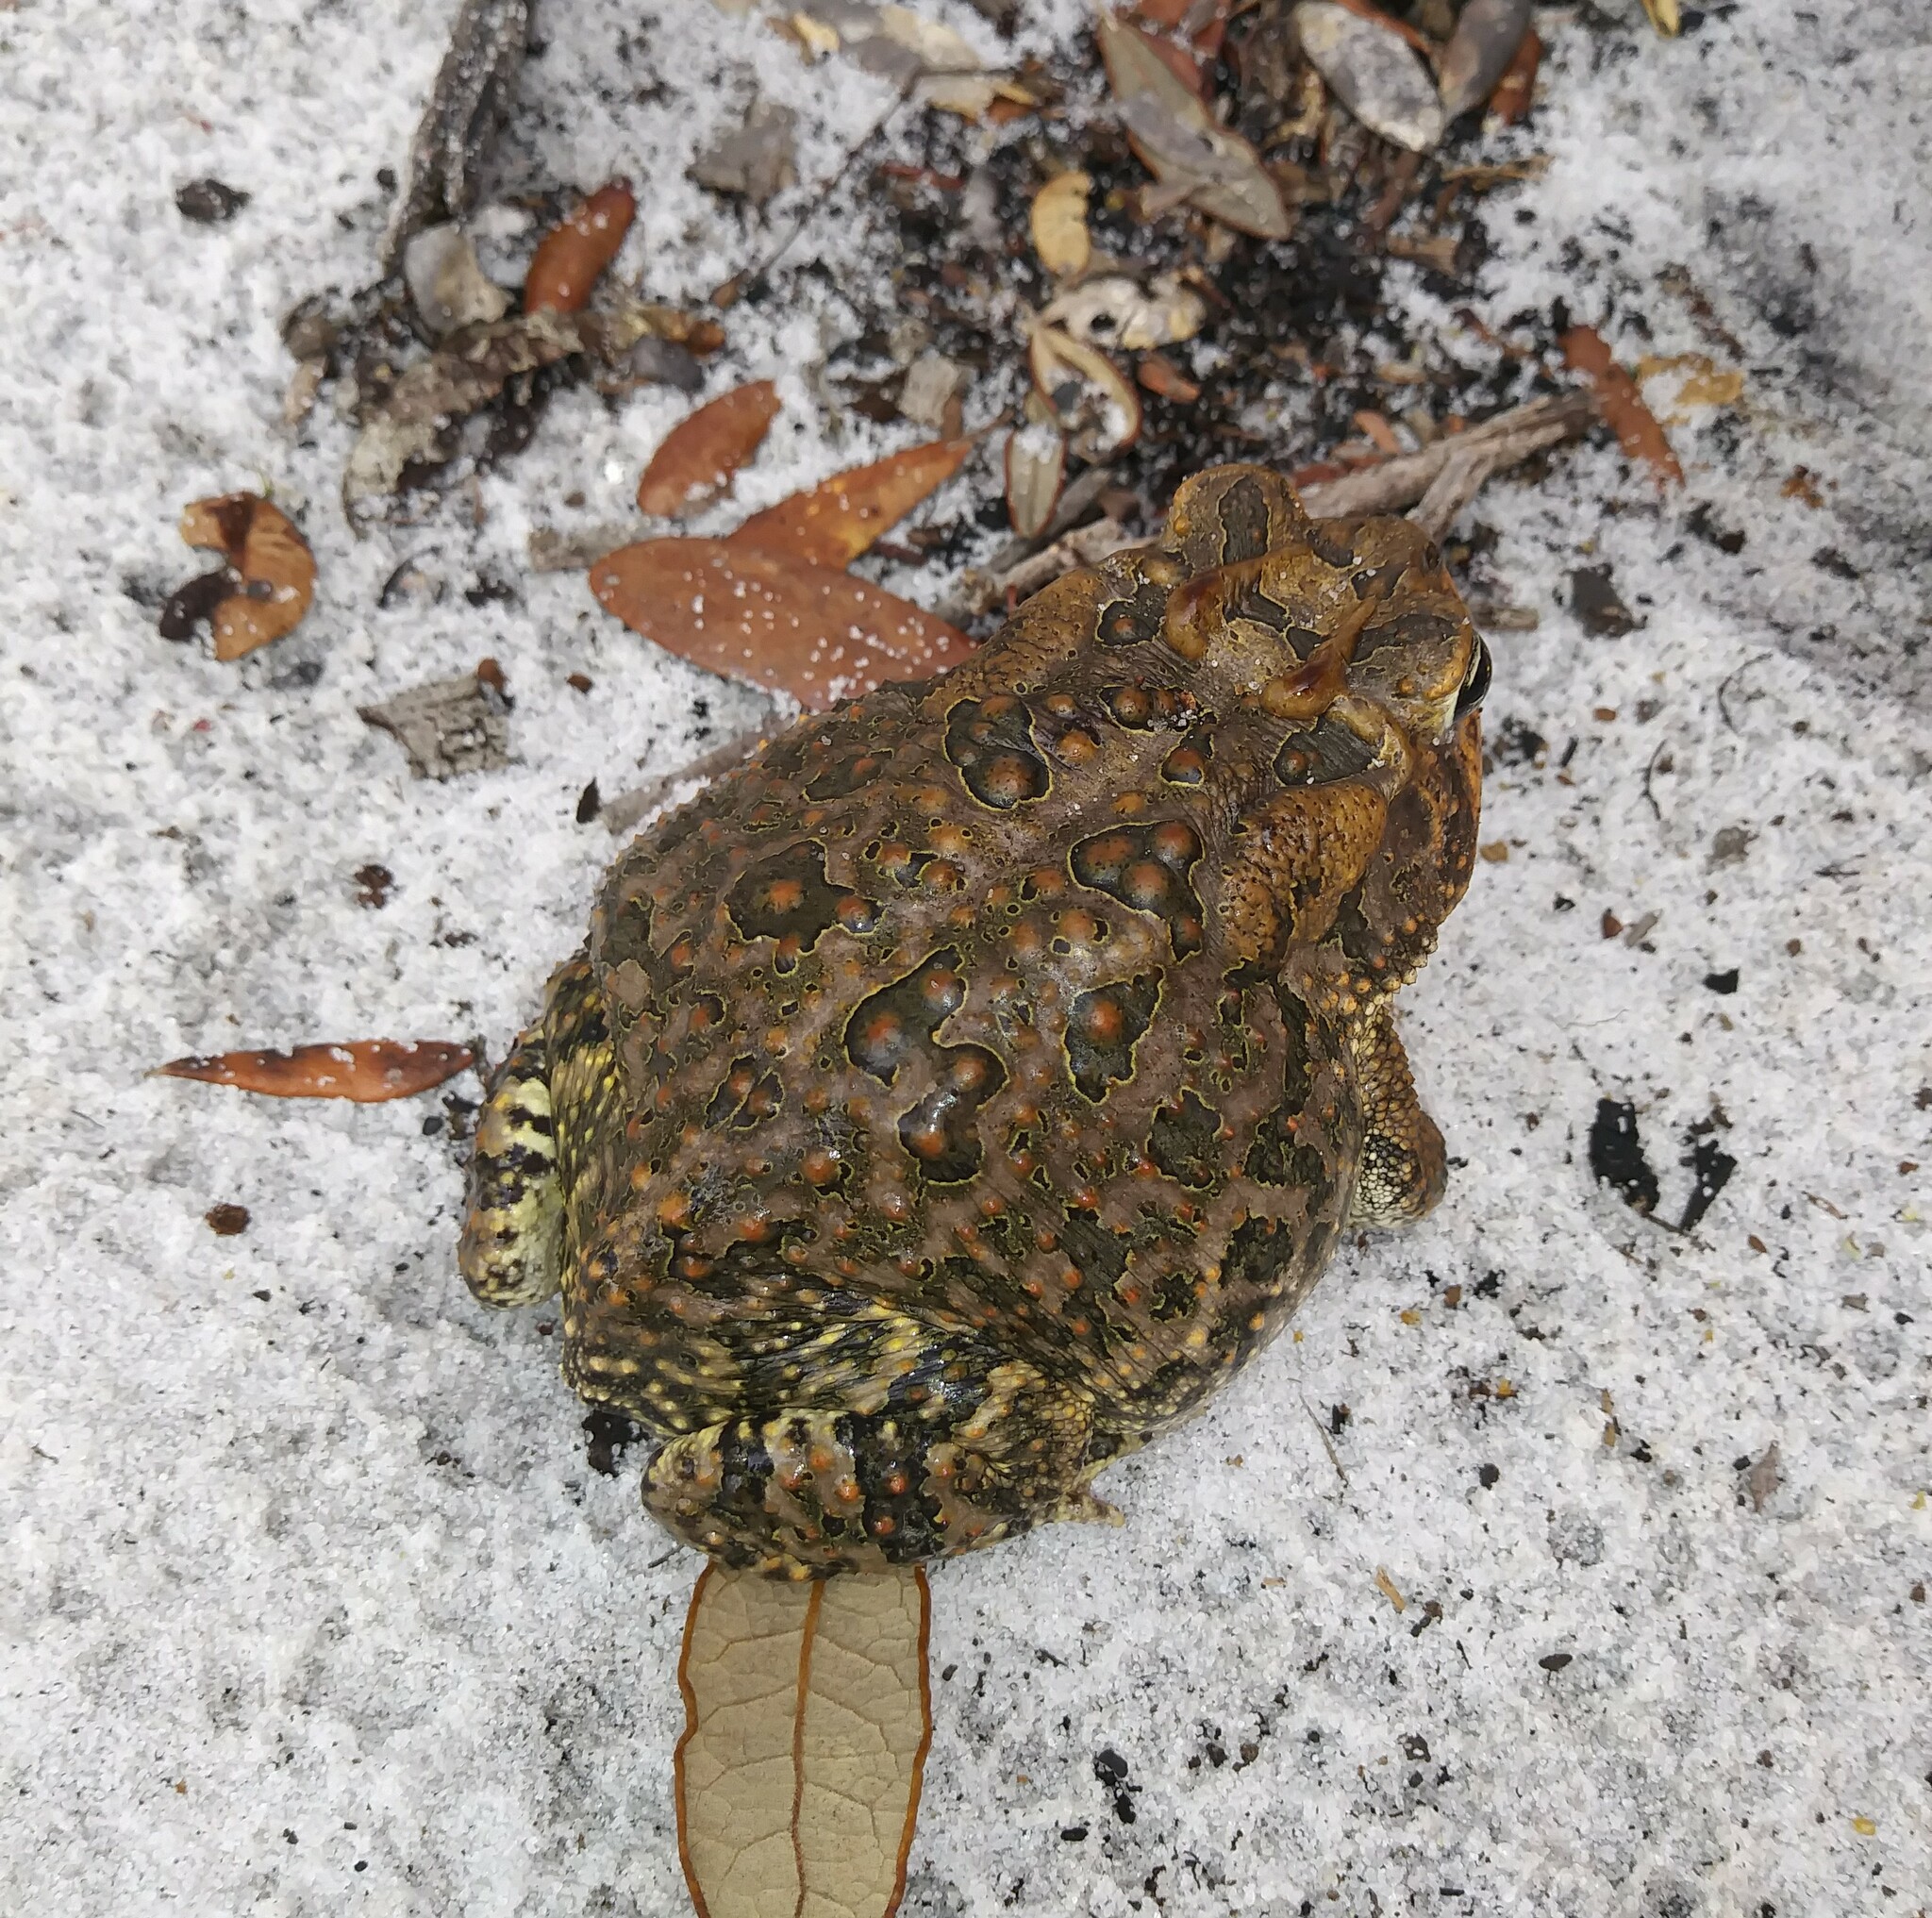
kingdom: Animalia
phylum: Chordata
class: Amphibia
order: Anura
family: Bufonidae
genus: Anaxyrus
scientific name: Anaxyrus terrestris
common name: Southern toad
